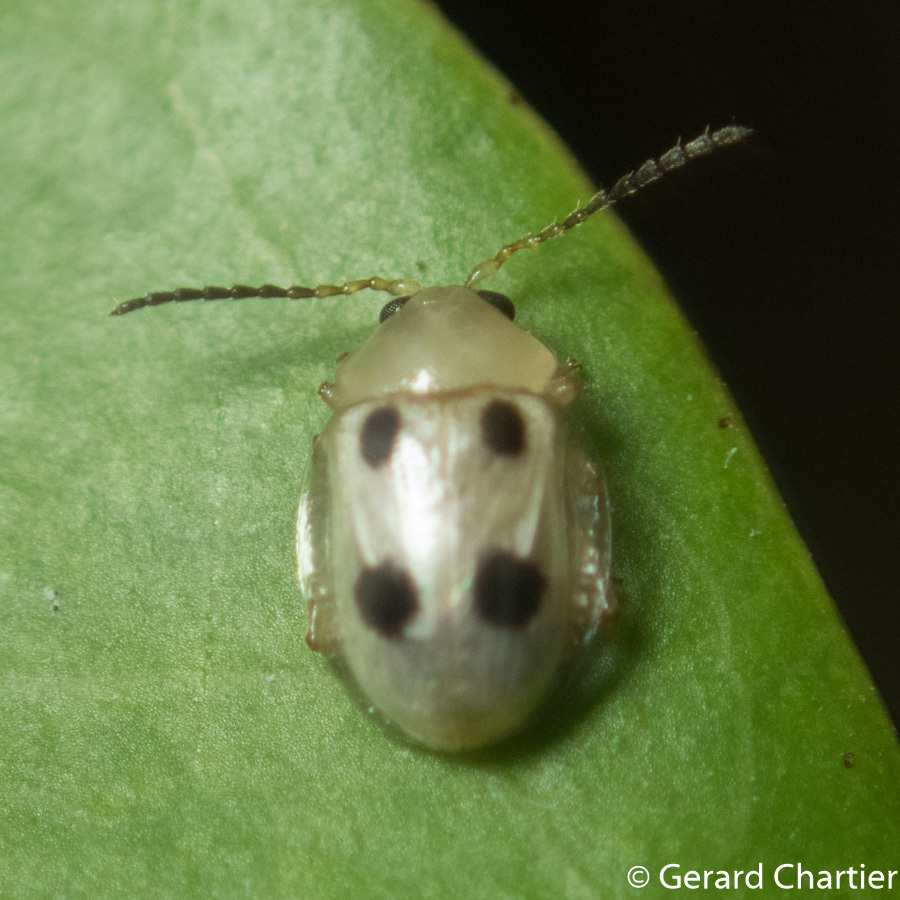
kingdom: Animalia
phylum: Arthropoda
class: Insecta
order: Coleoptera
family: Chrysomelidae
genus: Erystus
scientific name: Erystus
